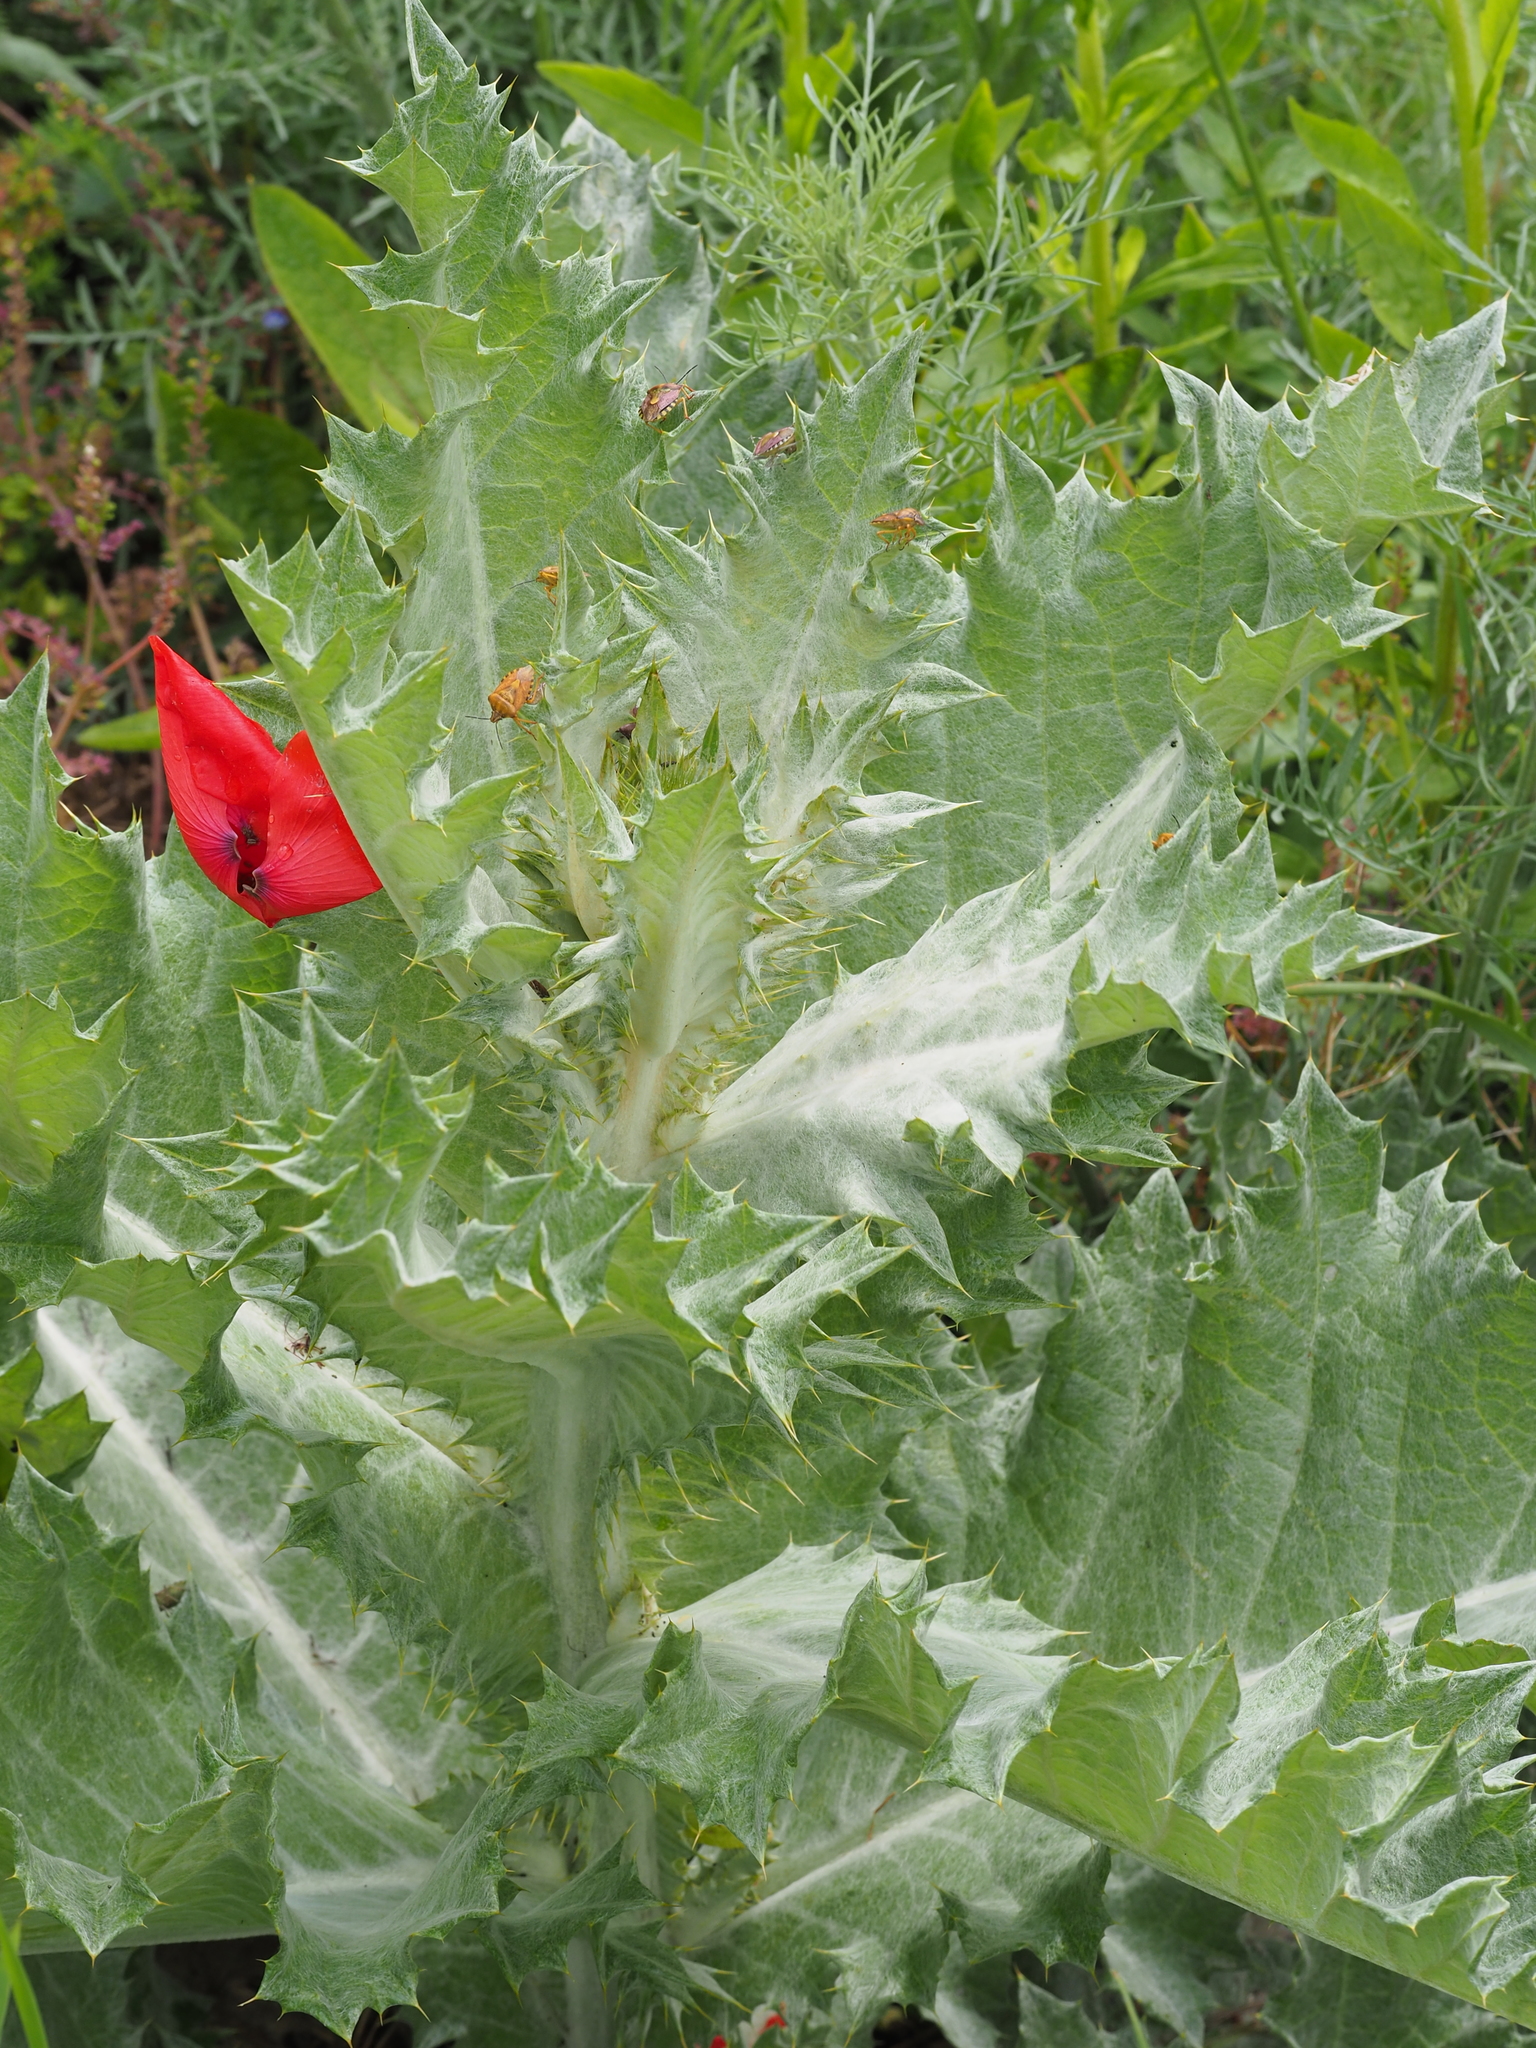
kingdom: Plantae
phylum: Tracheophyta
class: Magnoliopsida
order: Asterales
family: Asteraceae
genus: Onopordum
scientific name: Onopordum acanthium
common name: Scotch thistle
